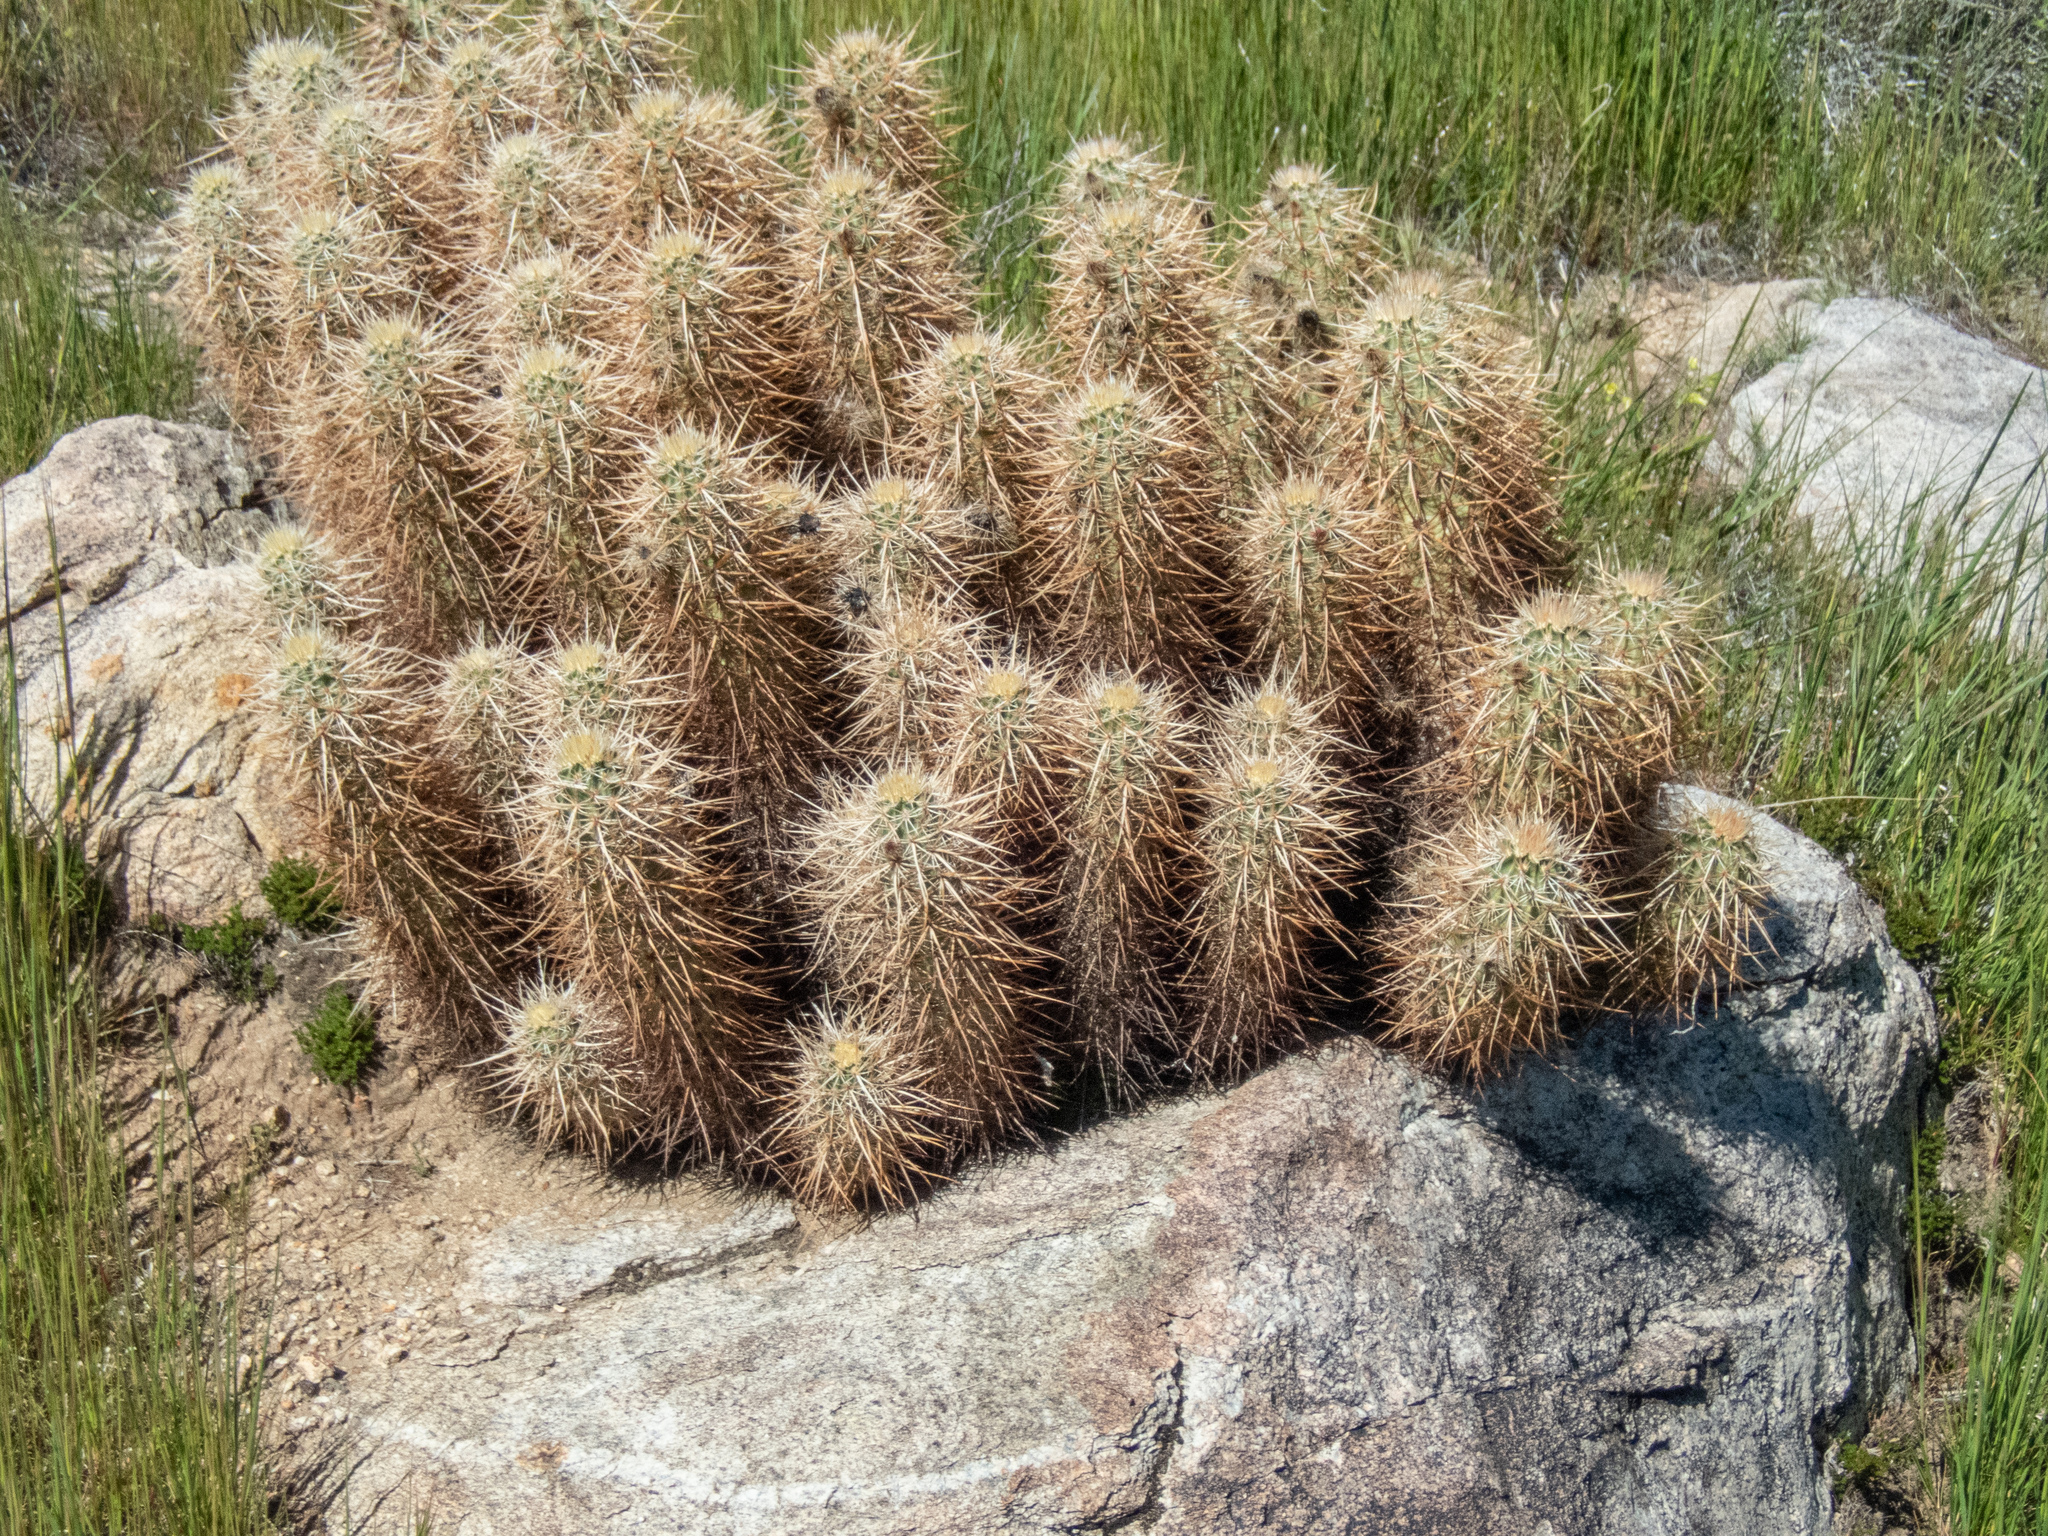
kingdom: Plantae
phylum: Tracheophyta
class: Magnoliopsida
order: Caryophyllales
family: Cactaceae
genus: Echinocereus
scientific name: Echinocereus engelmannii
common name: Engelmann's hedgehog cactus
